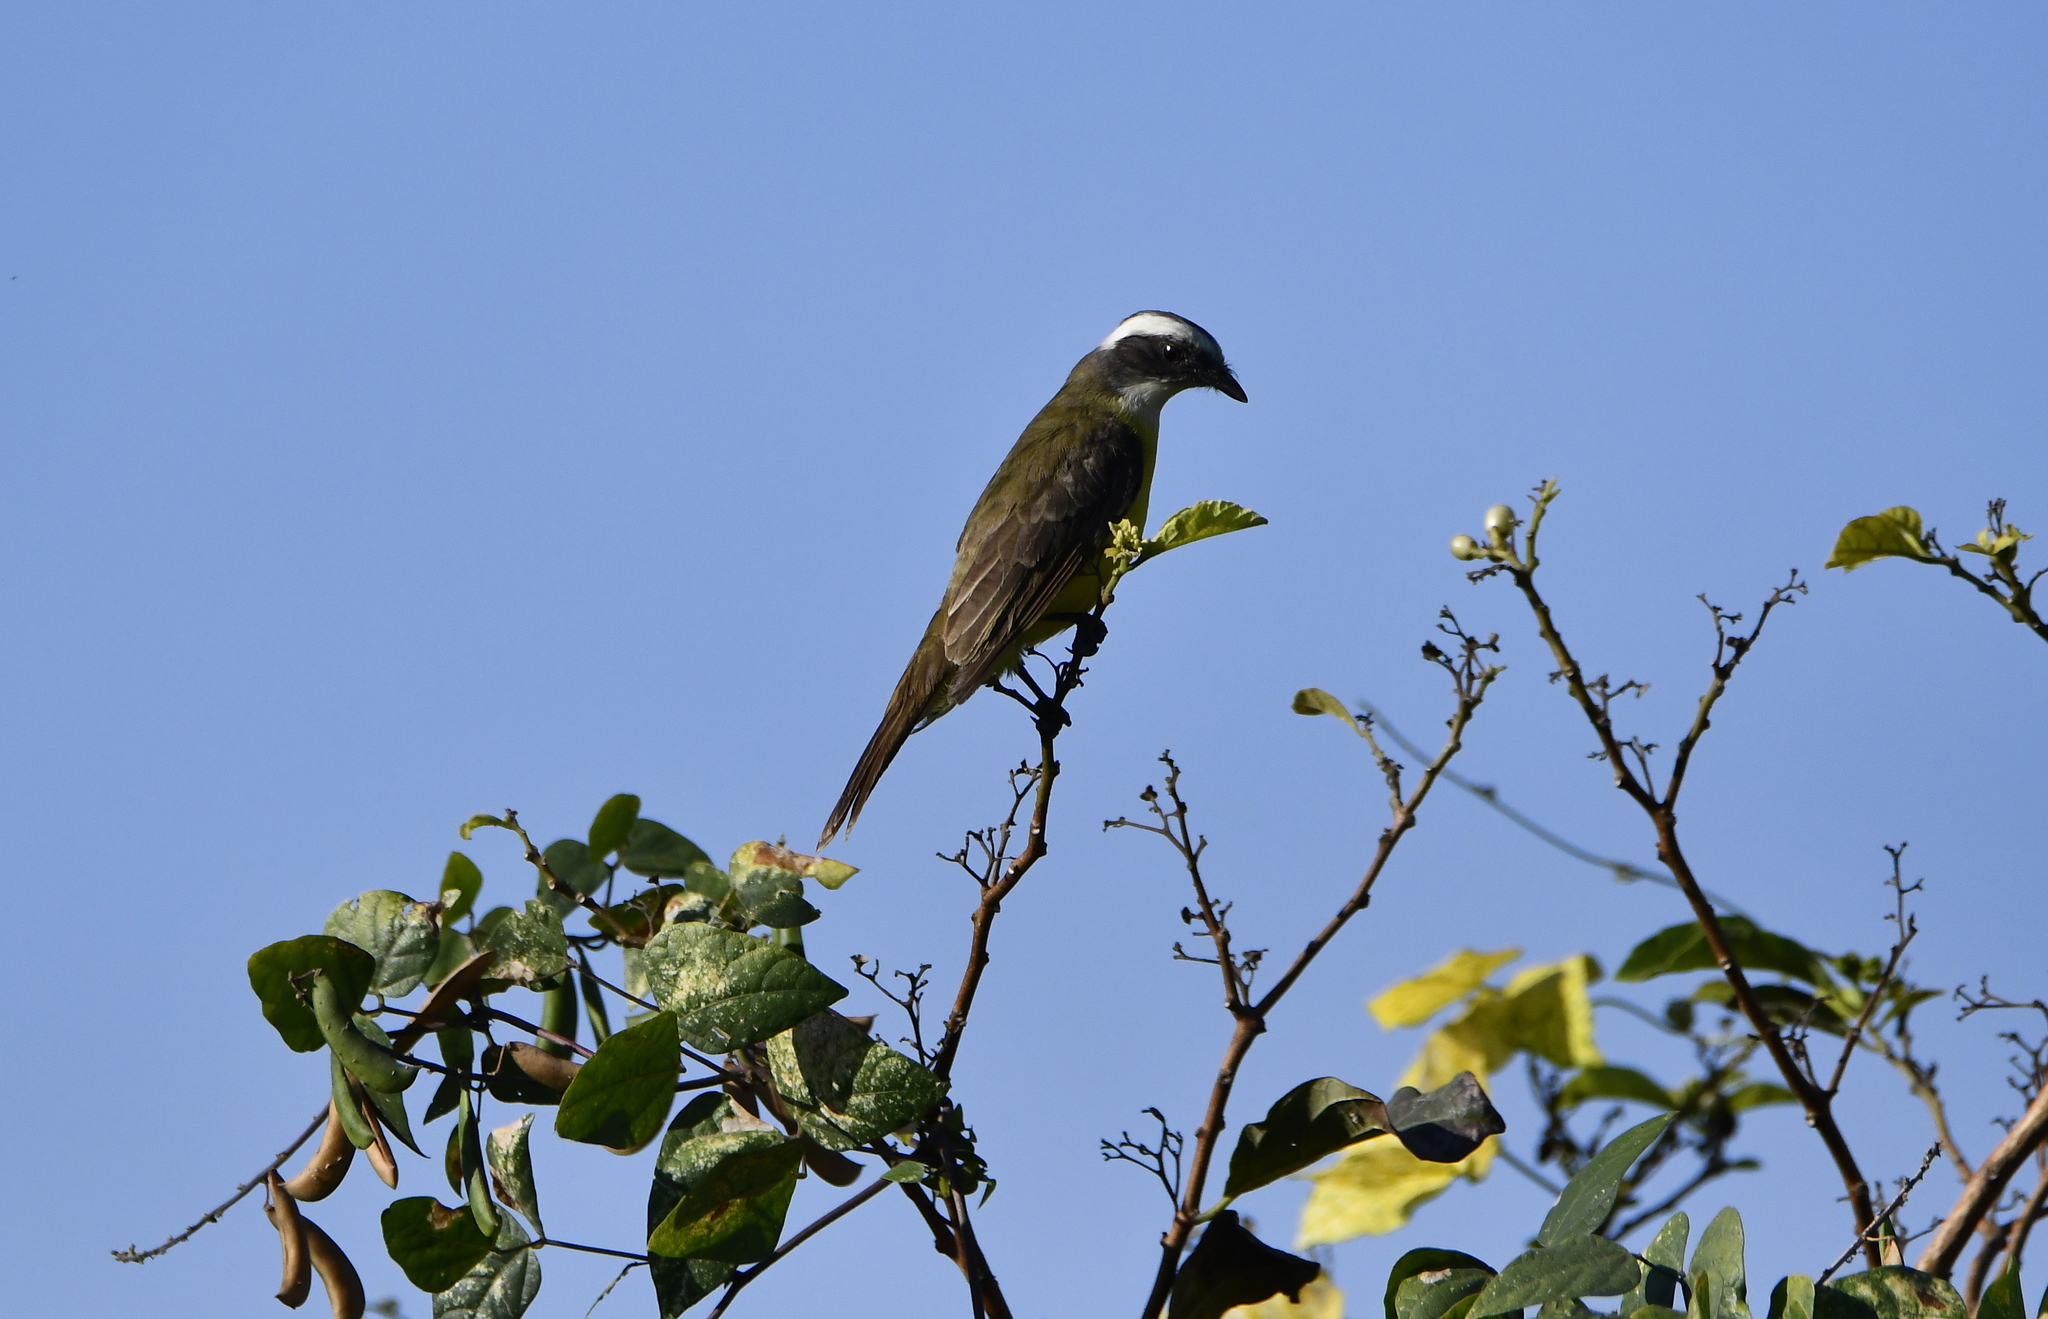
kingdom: Animalia
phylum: Chordata
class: Aves
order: Passeriformes
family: Tyrannidae
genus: Myiozetetes
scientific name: Myiozetetes similis
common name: Social flycatcher
